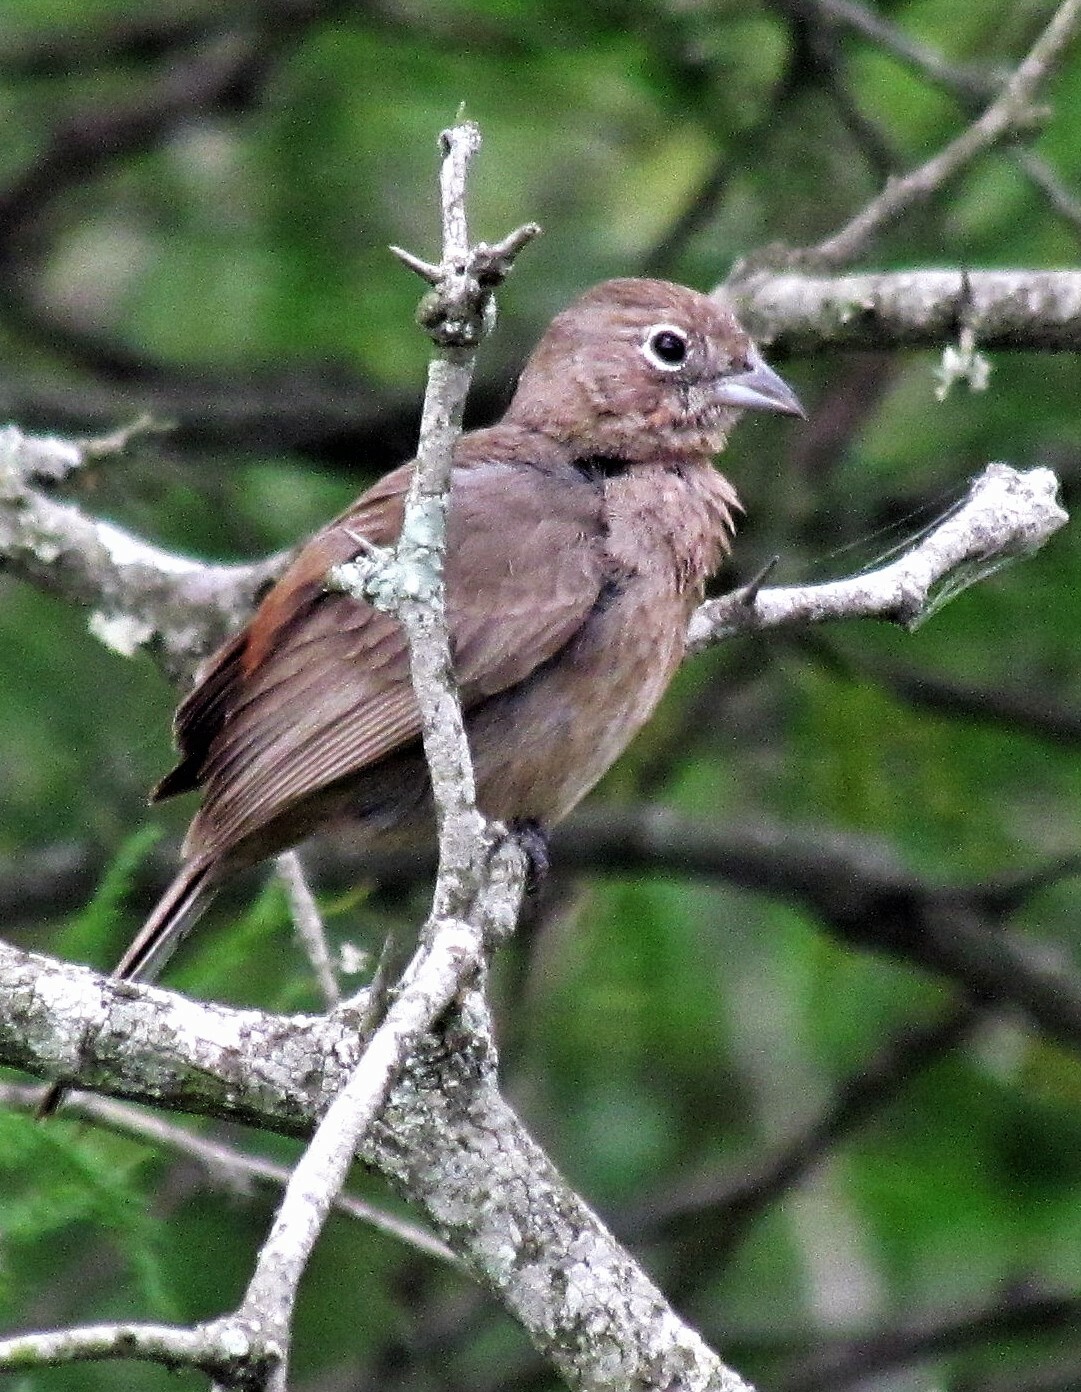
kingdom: Animalia
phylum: Chordata
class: Aves
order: Passeriformes
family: Thraupidae
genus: Coryphospingus
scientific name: Coryphospingus cucullatus
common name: Red pileated finch
